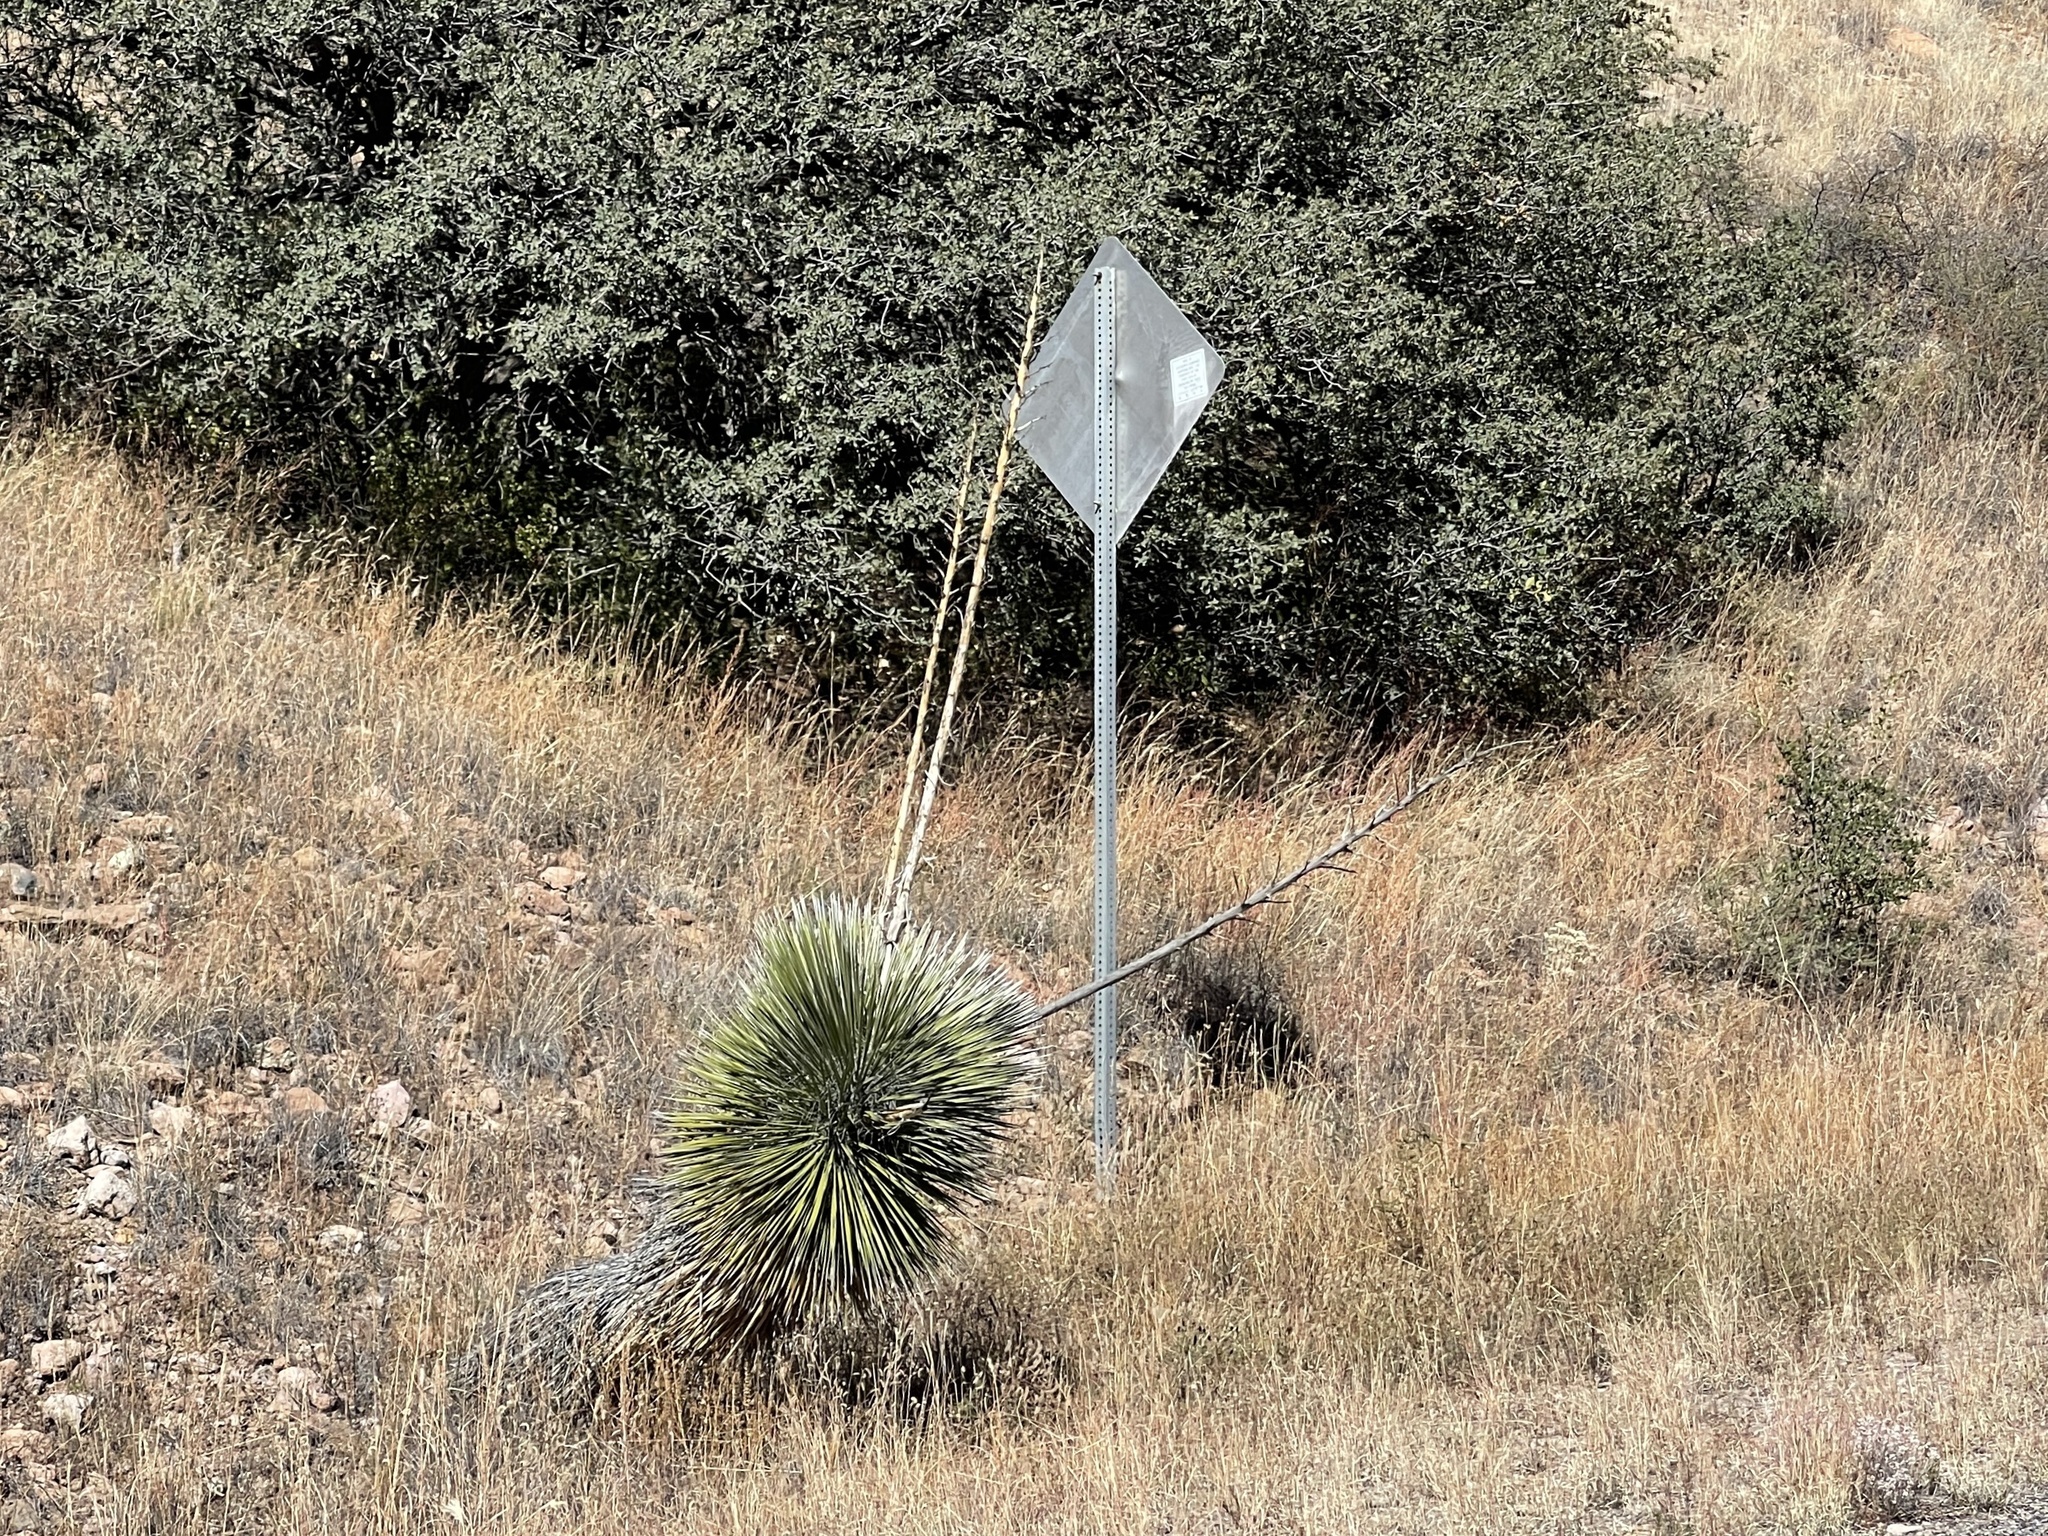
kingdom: Plantae
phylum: Tracheophyta
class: Liliopsida
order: Asparagales
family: Asparagaceae
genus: Yucca
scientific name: Yucca elata
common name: Palmella
